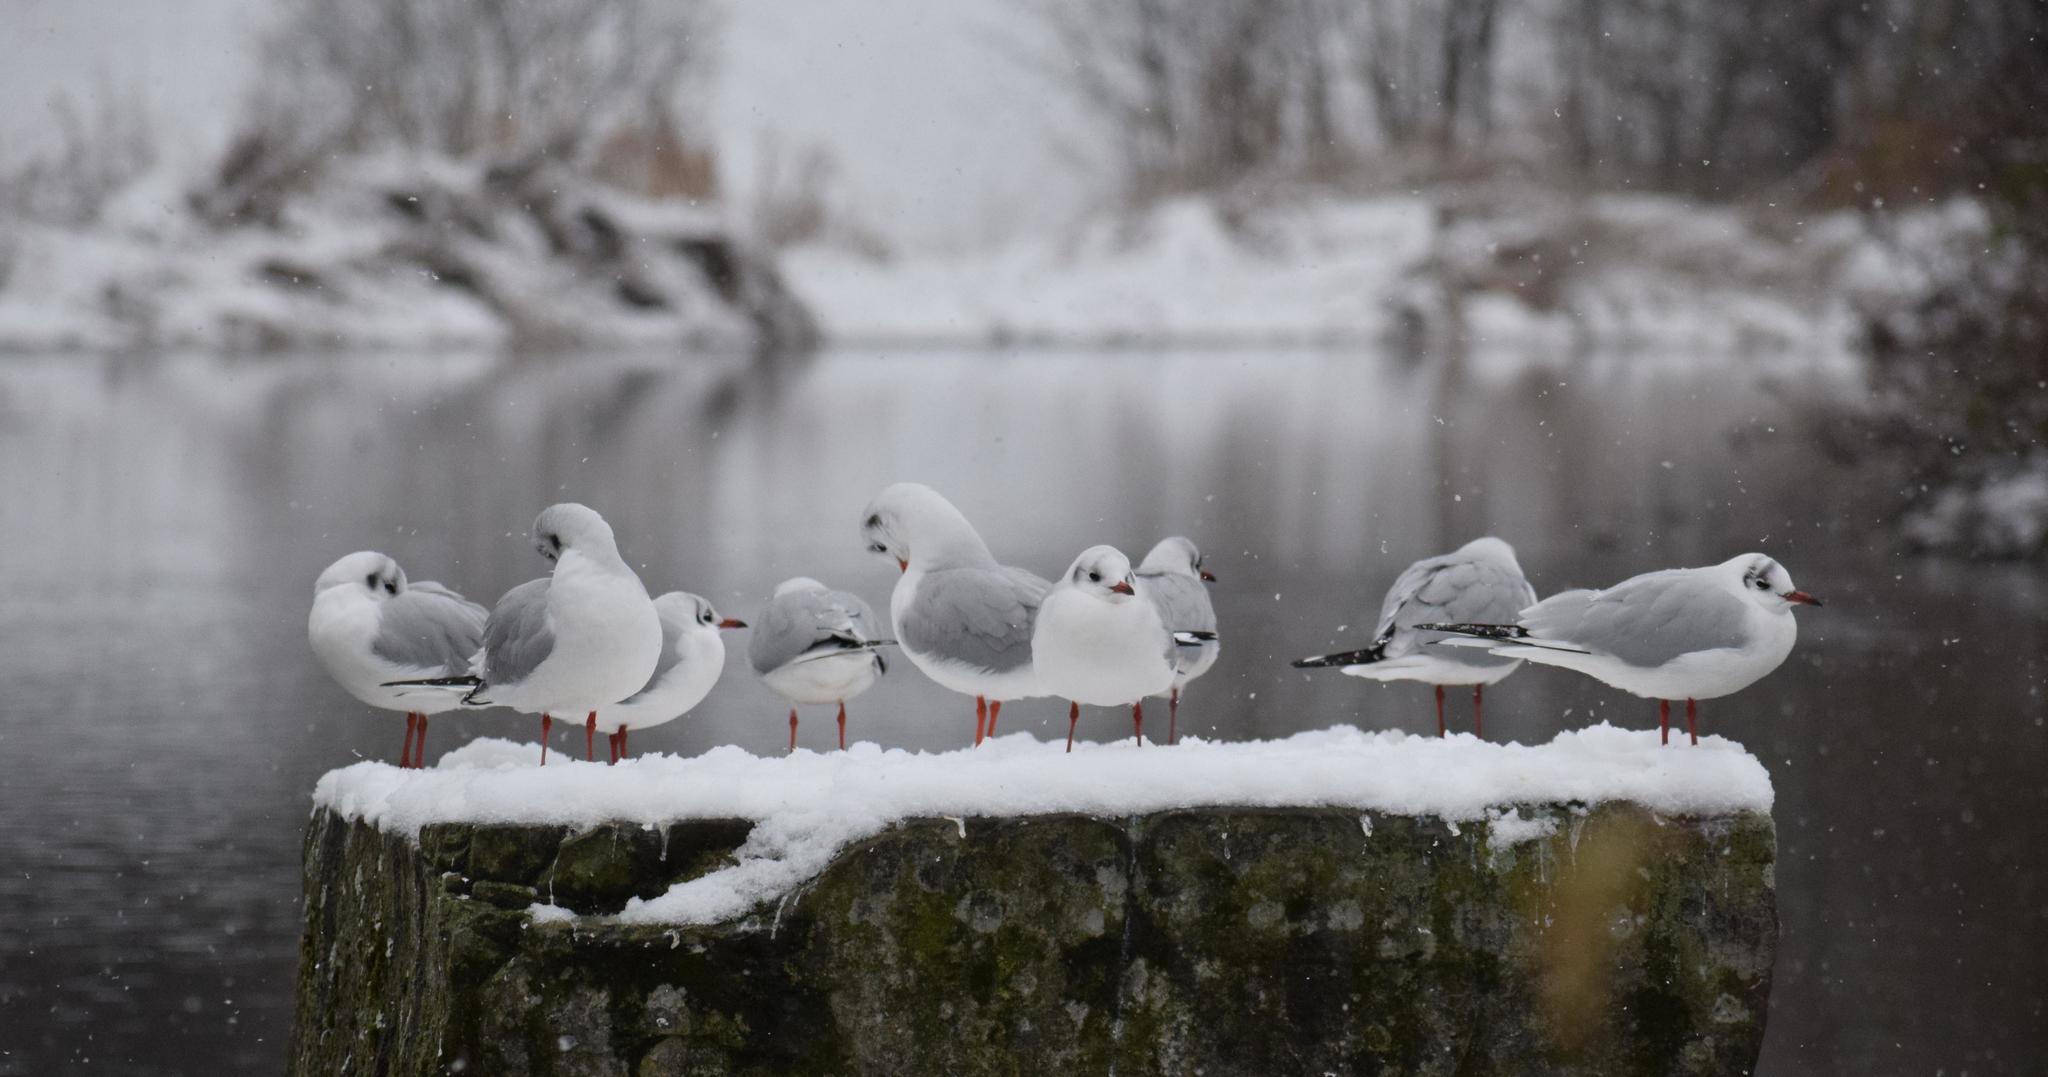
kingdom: Animalia
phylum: Chordata
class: Aves
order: Charadriiformes
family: Laridae
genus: Chroicocephalus
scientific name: Chroicocephalus ridibundus
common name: Black-headed gull
